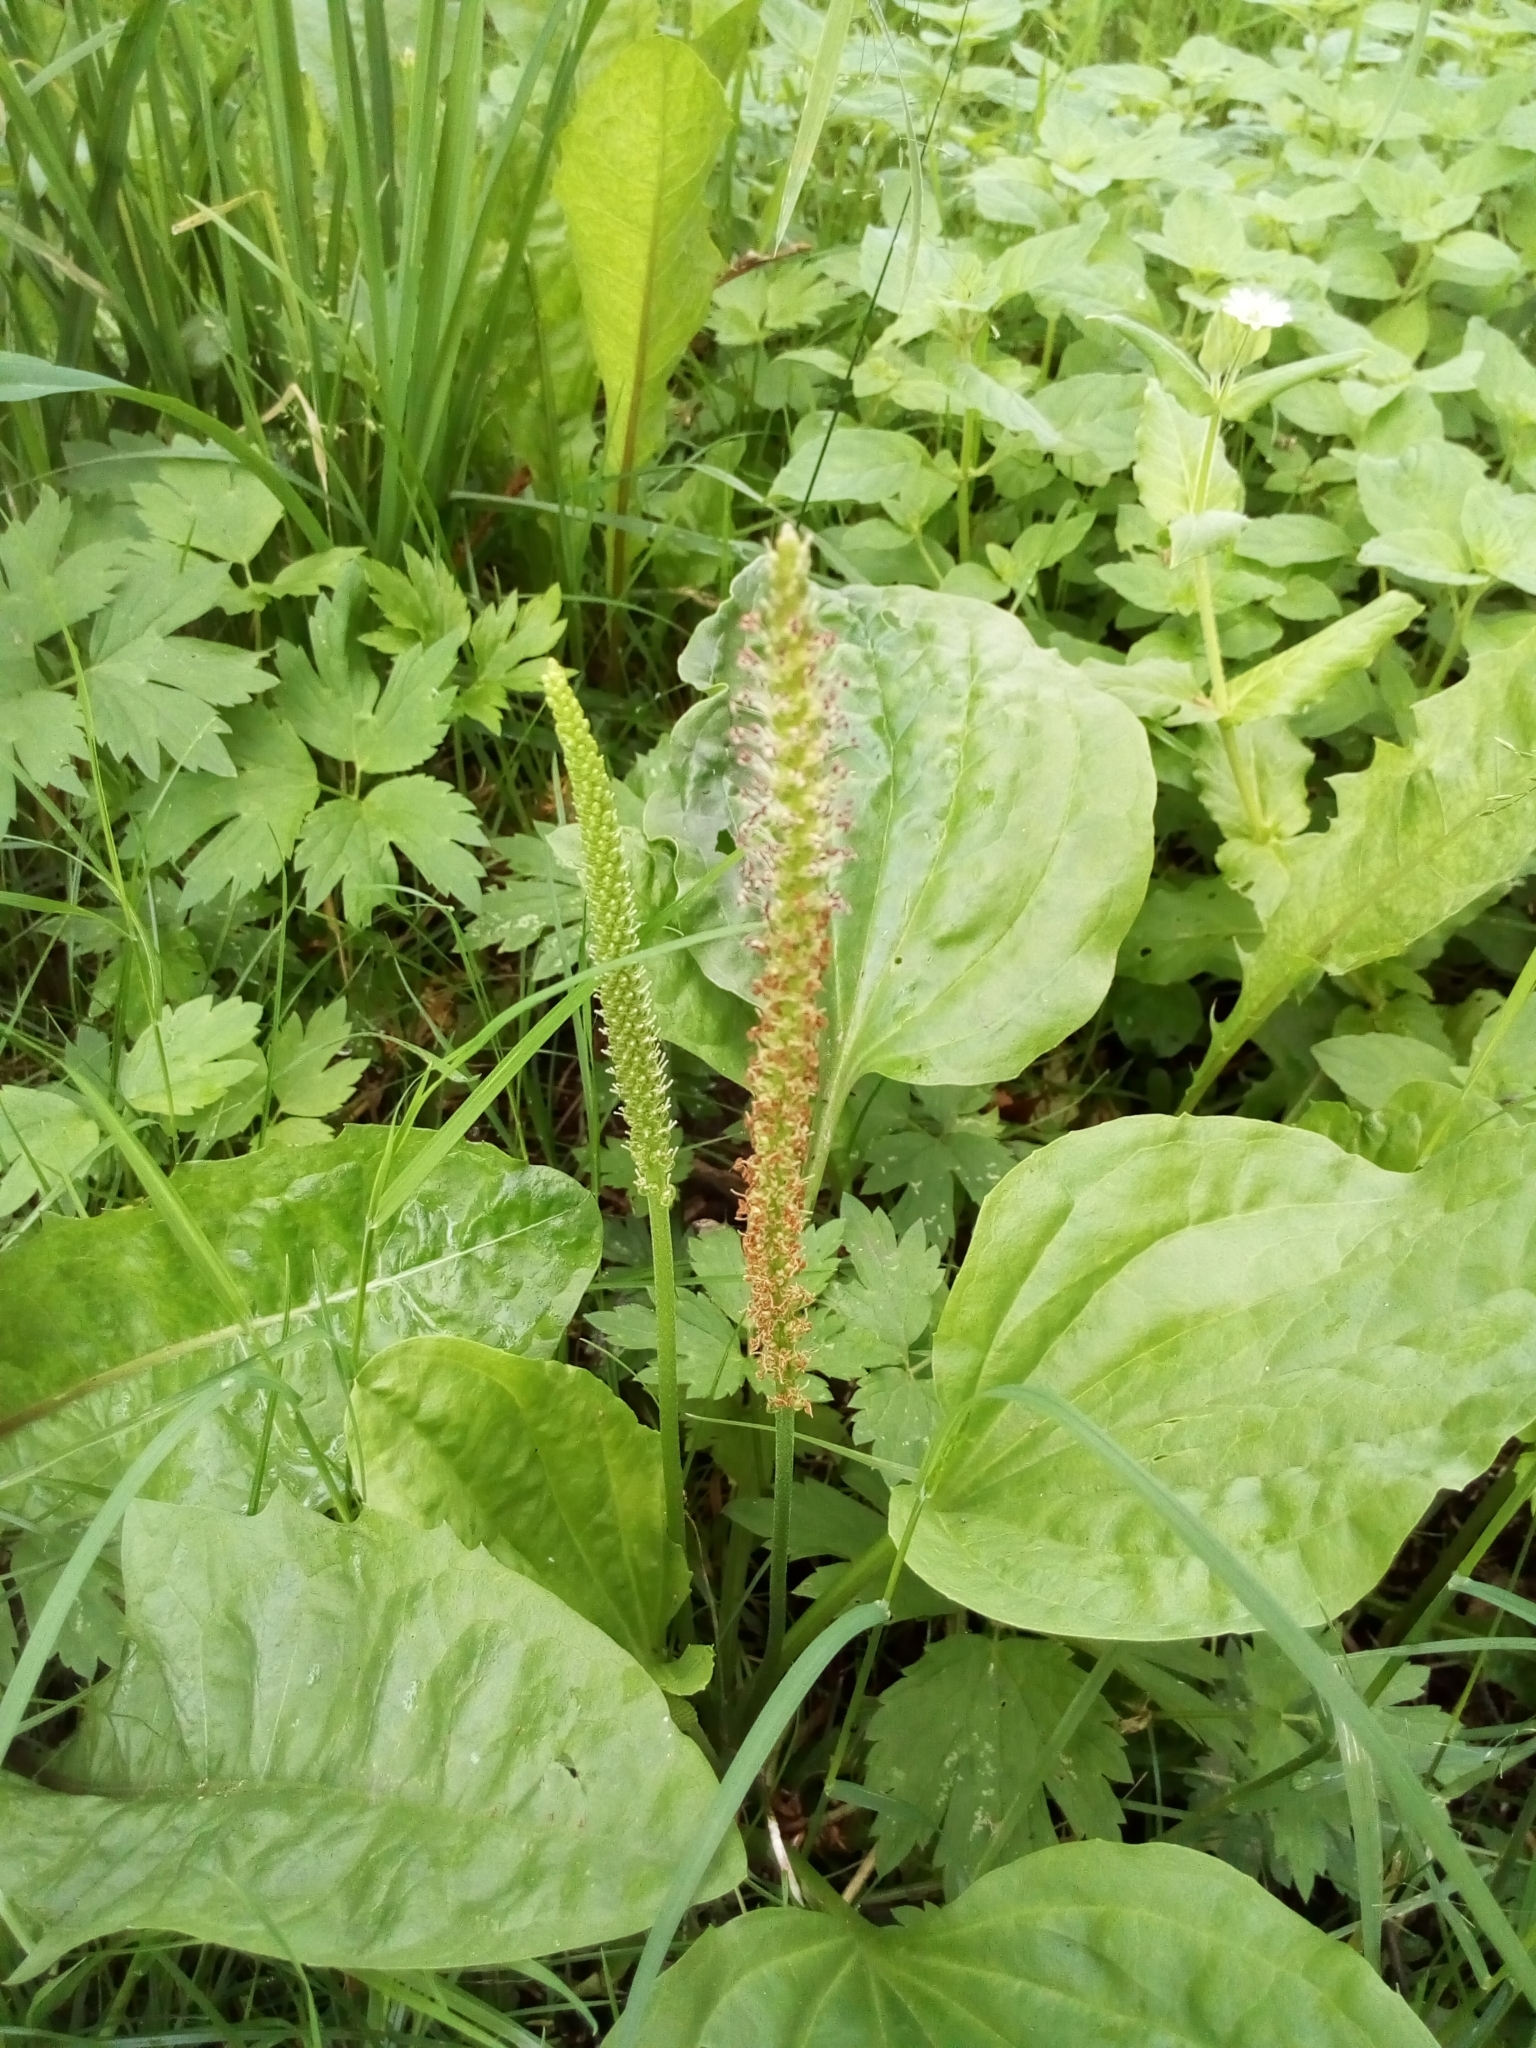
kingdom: Plantae
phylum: Tracheophyta
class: Magnoliopsida
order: Lamiales
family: Plantaginaceae
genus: Plantago
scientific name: Plantago major
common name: Common plantain
